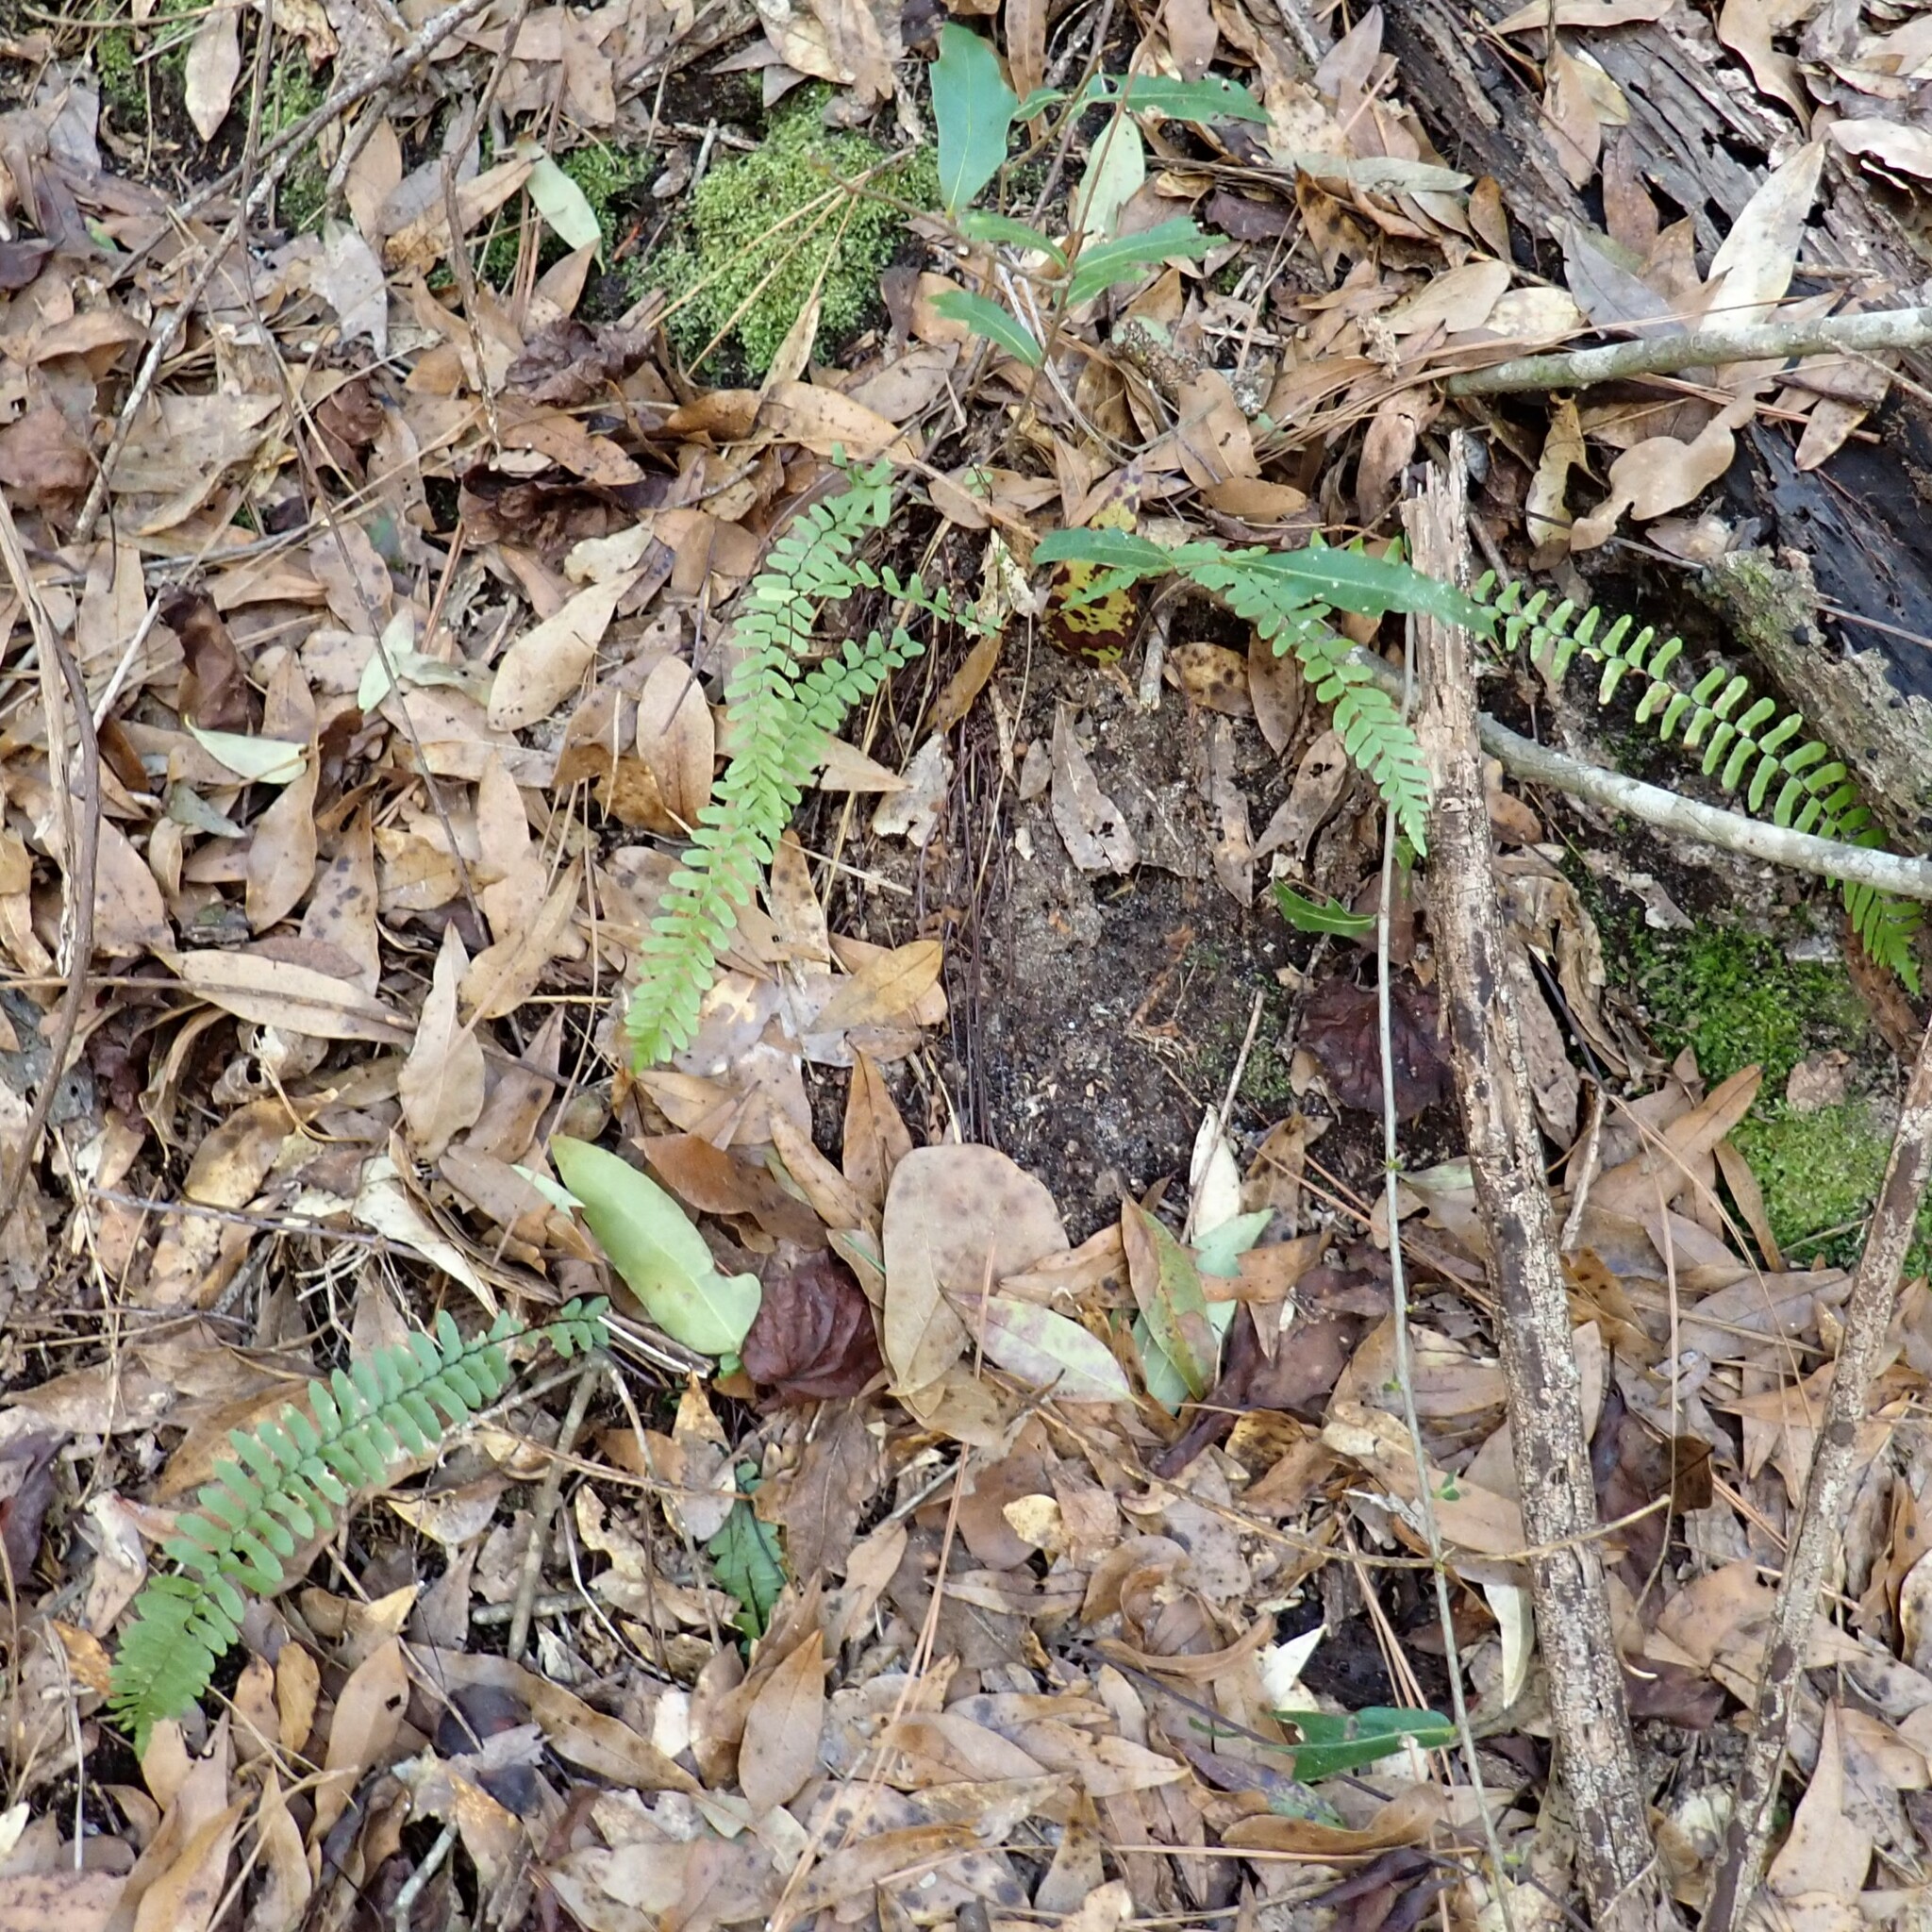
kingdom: Plantae
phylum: Tracheophyta
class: Polypodiopsida
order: Polypodiales
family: Aspleniaceae
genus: Asplenium
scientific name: Asplenium platyneuron
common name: Ebony spleenwort
